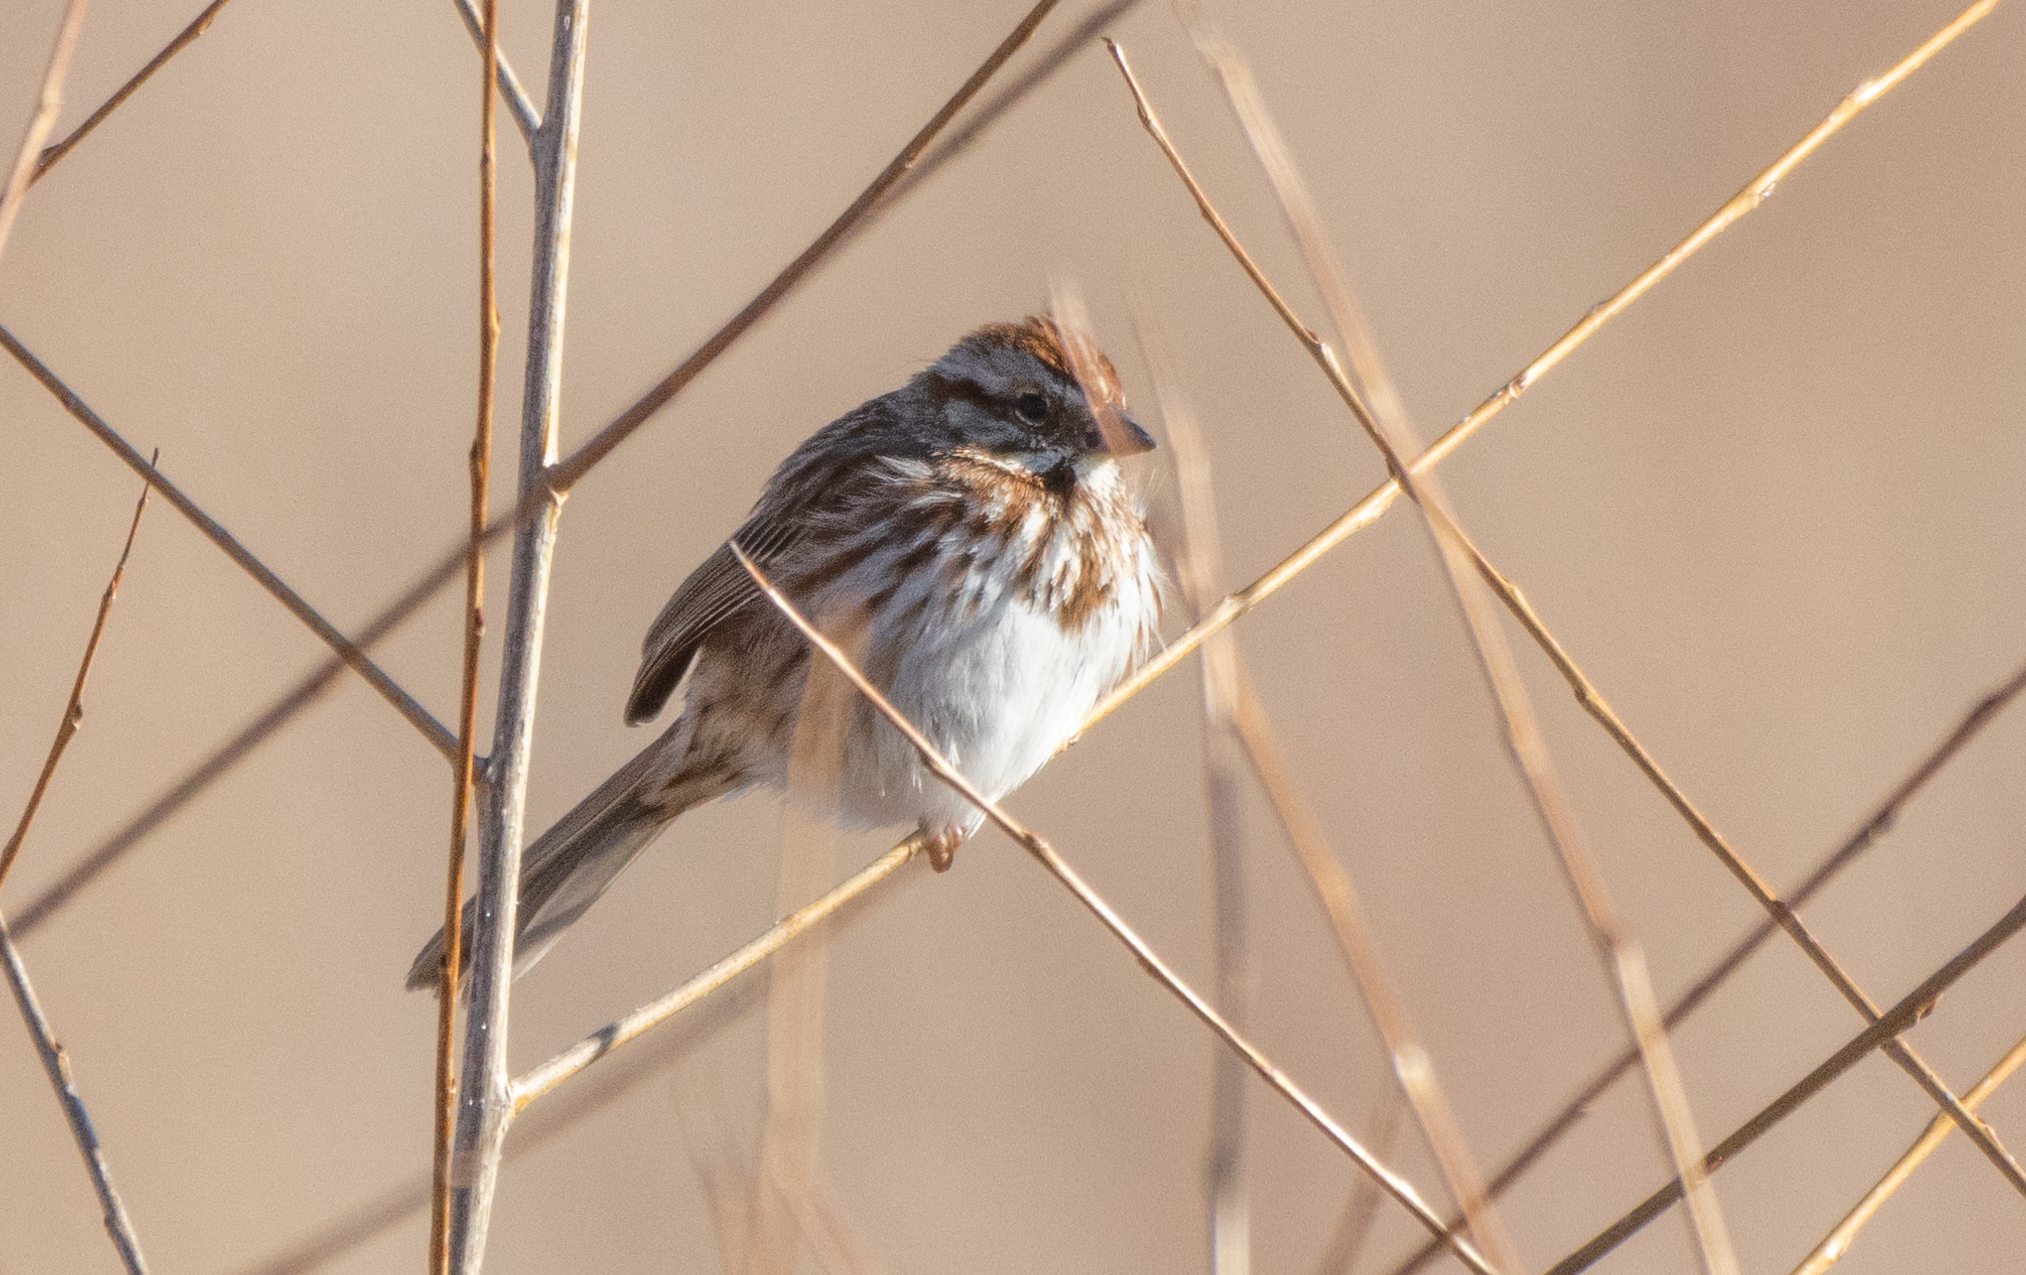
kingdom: Animalia
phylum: Chordata
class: Aves
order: Passeriformes
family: Passerellidae
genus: Melospiza
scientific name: Melospiza melodia
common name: Song sparrow
